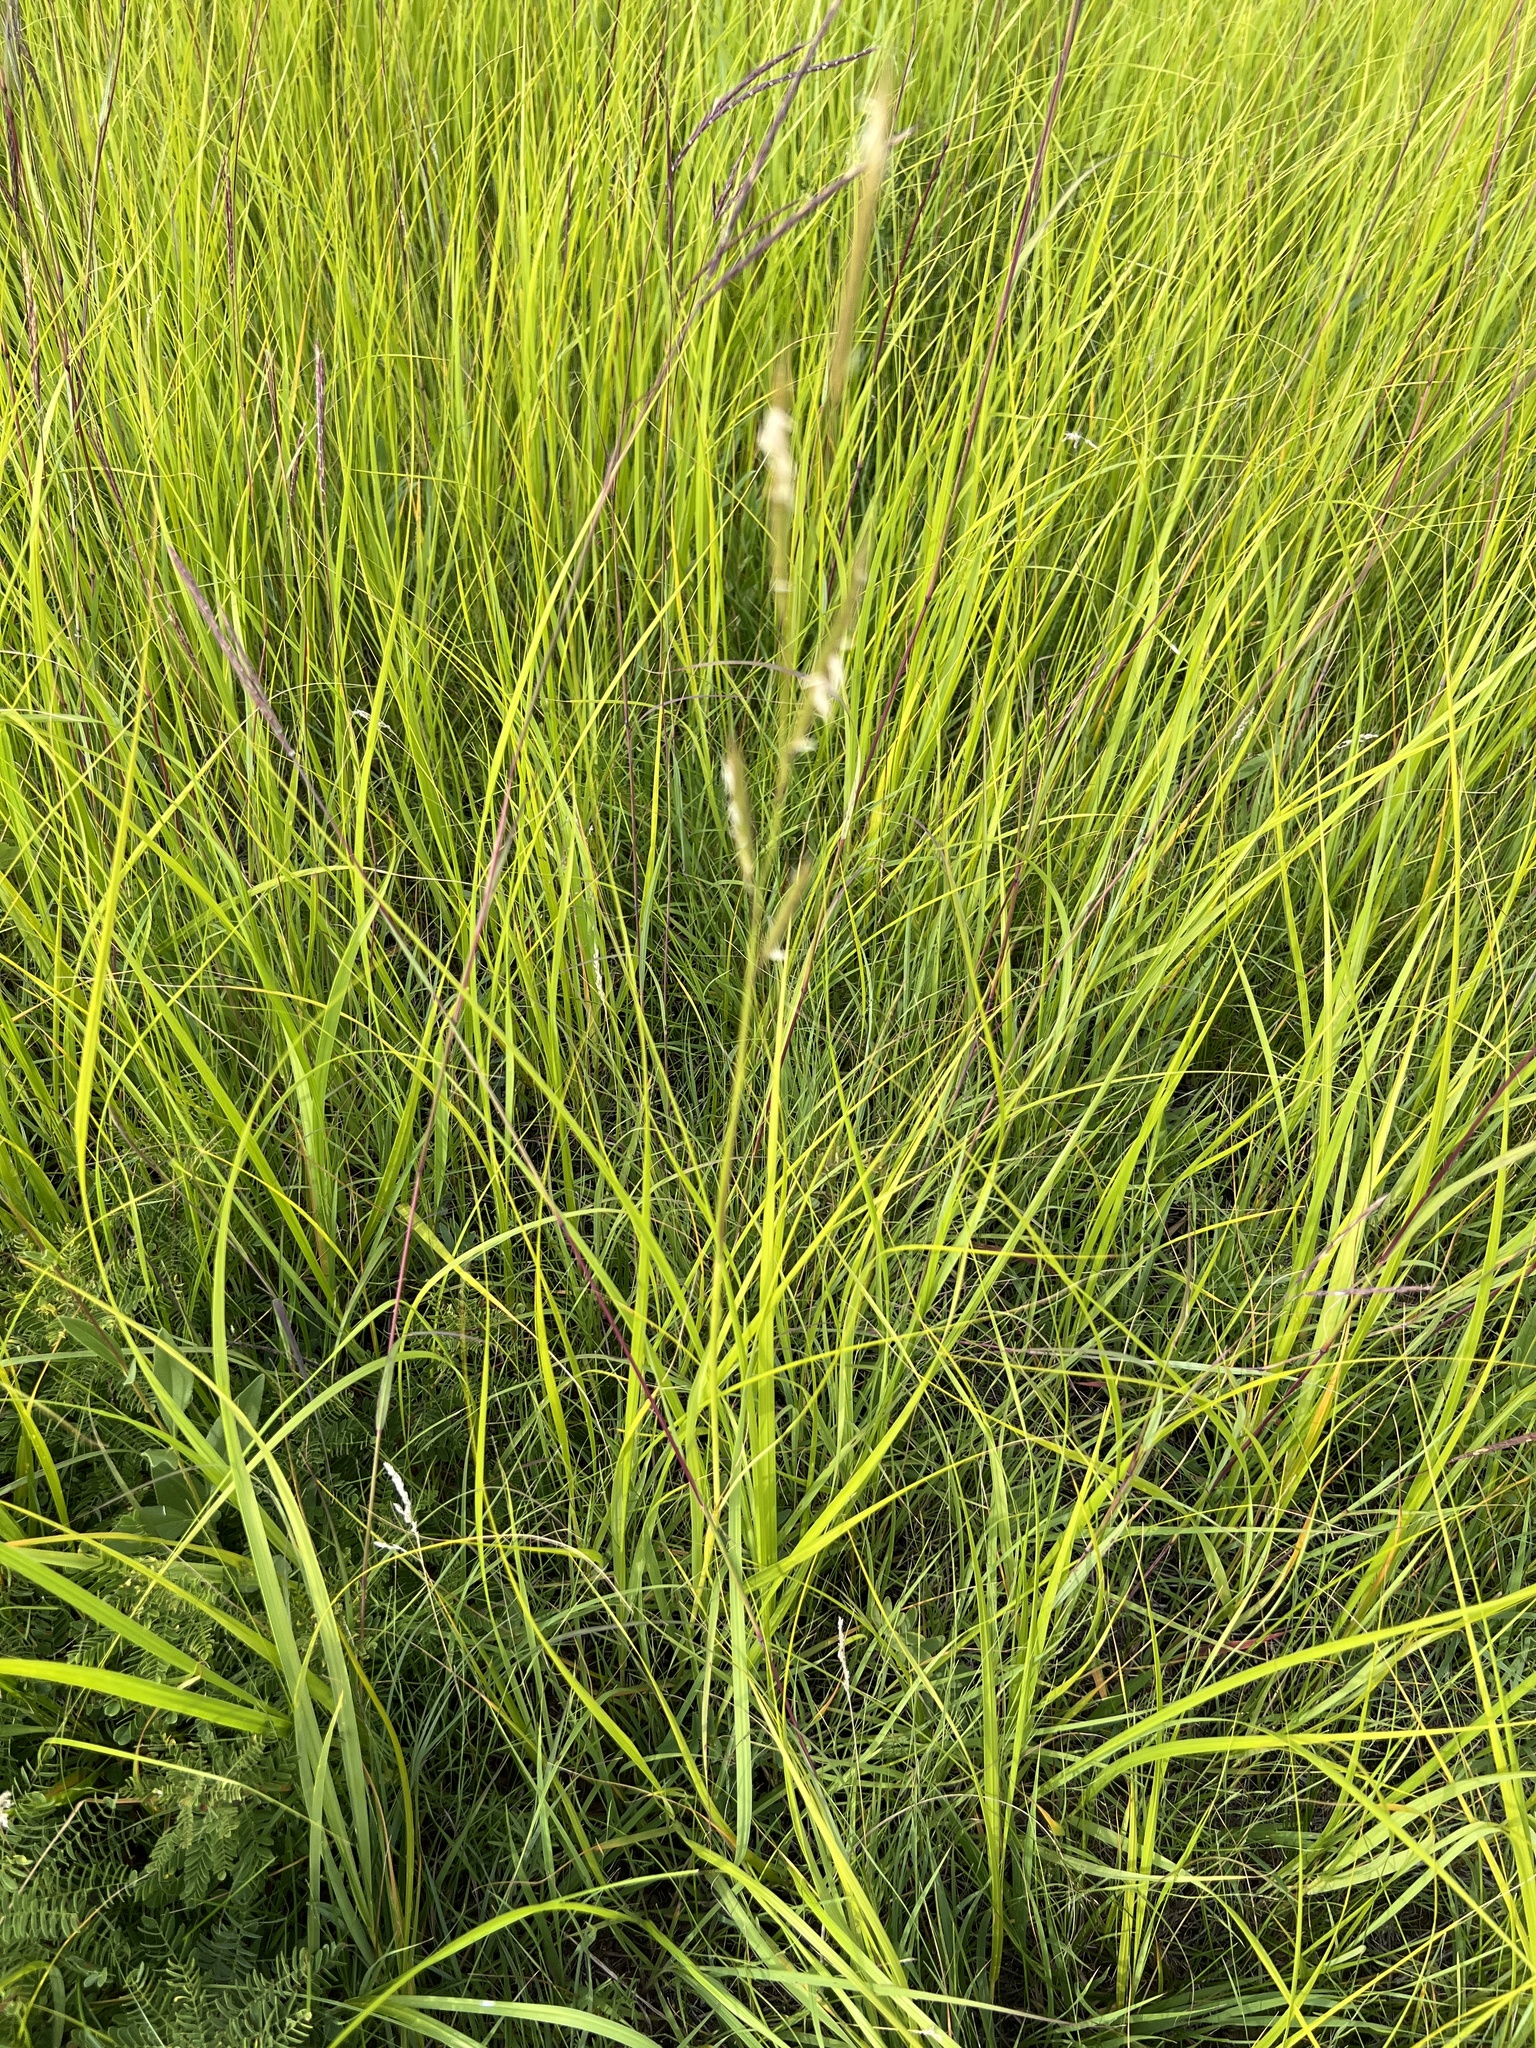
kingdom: Plantae
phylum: Tracheophyta
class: Liliopsida
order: Poales
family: Poaceae
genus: Sporobolus
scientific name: Sporobolus michauxianus
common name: Freshwater cordgrass
